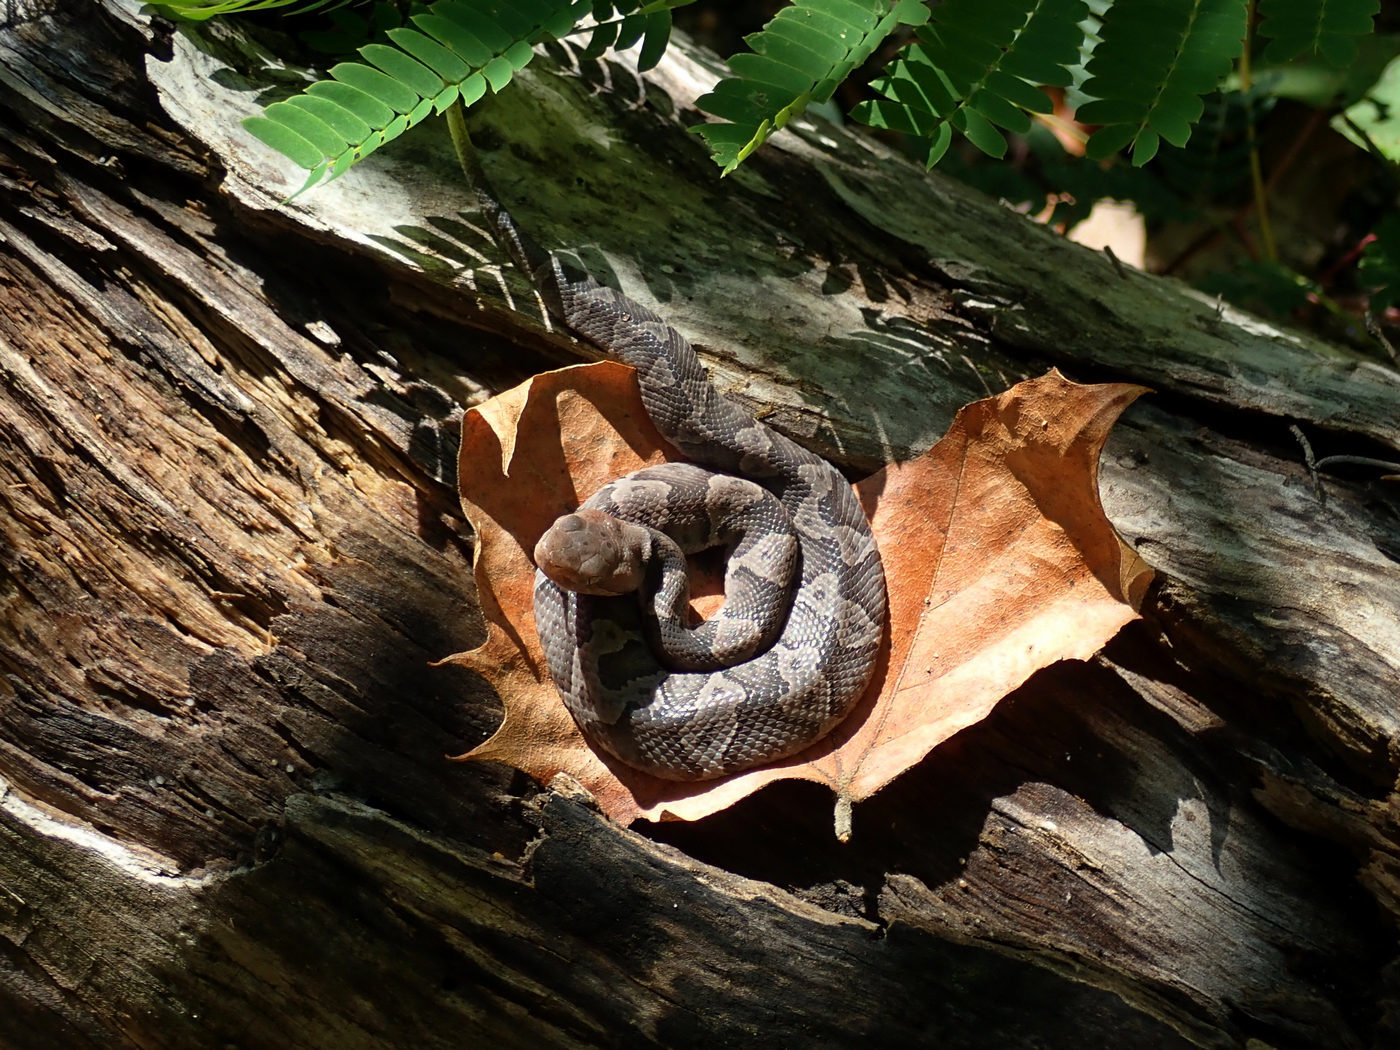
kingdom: Animalia
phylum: Chordata
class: Squamata
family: Viperidae
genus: Agkistrodon
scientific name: Agkistrodon contortrix
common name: Northern copperhead
